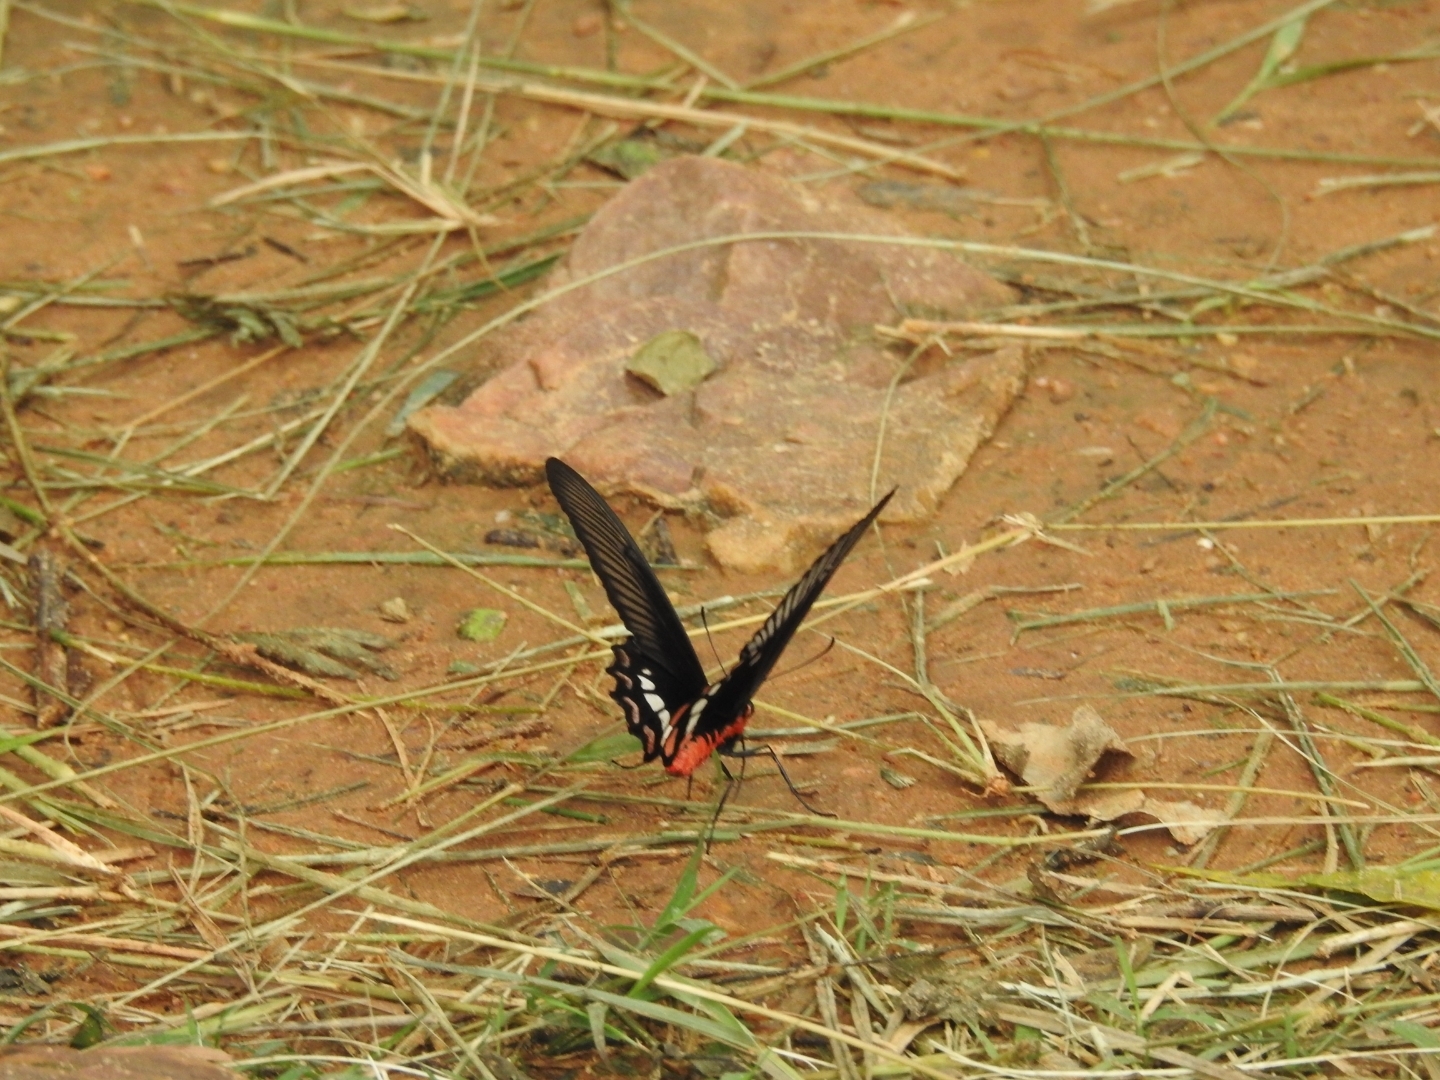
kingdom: Animalia
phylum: Arthropoda
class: Insecta
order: Lepidoptera
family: Papilionidae
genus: Pachliopta
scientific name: Pachliopta aristolochiae
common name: Common rose
